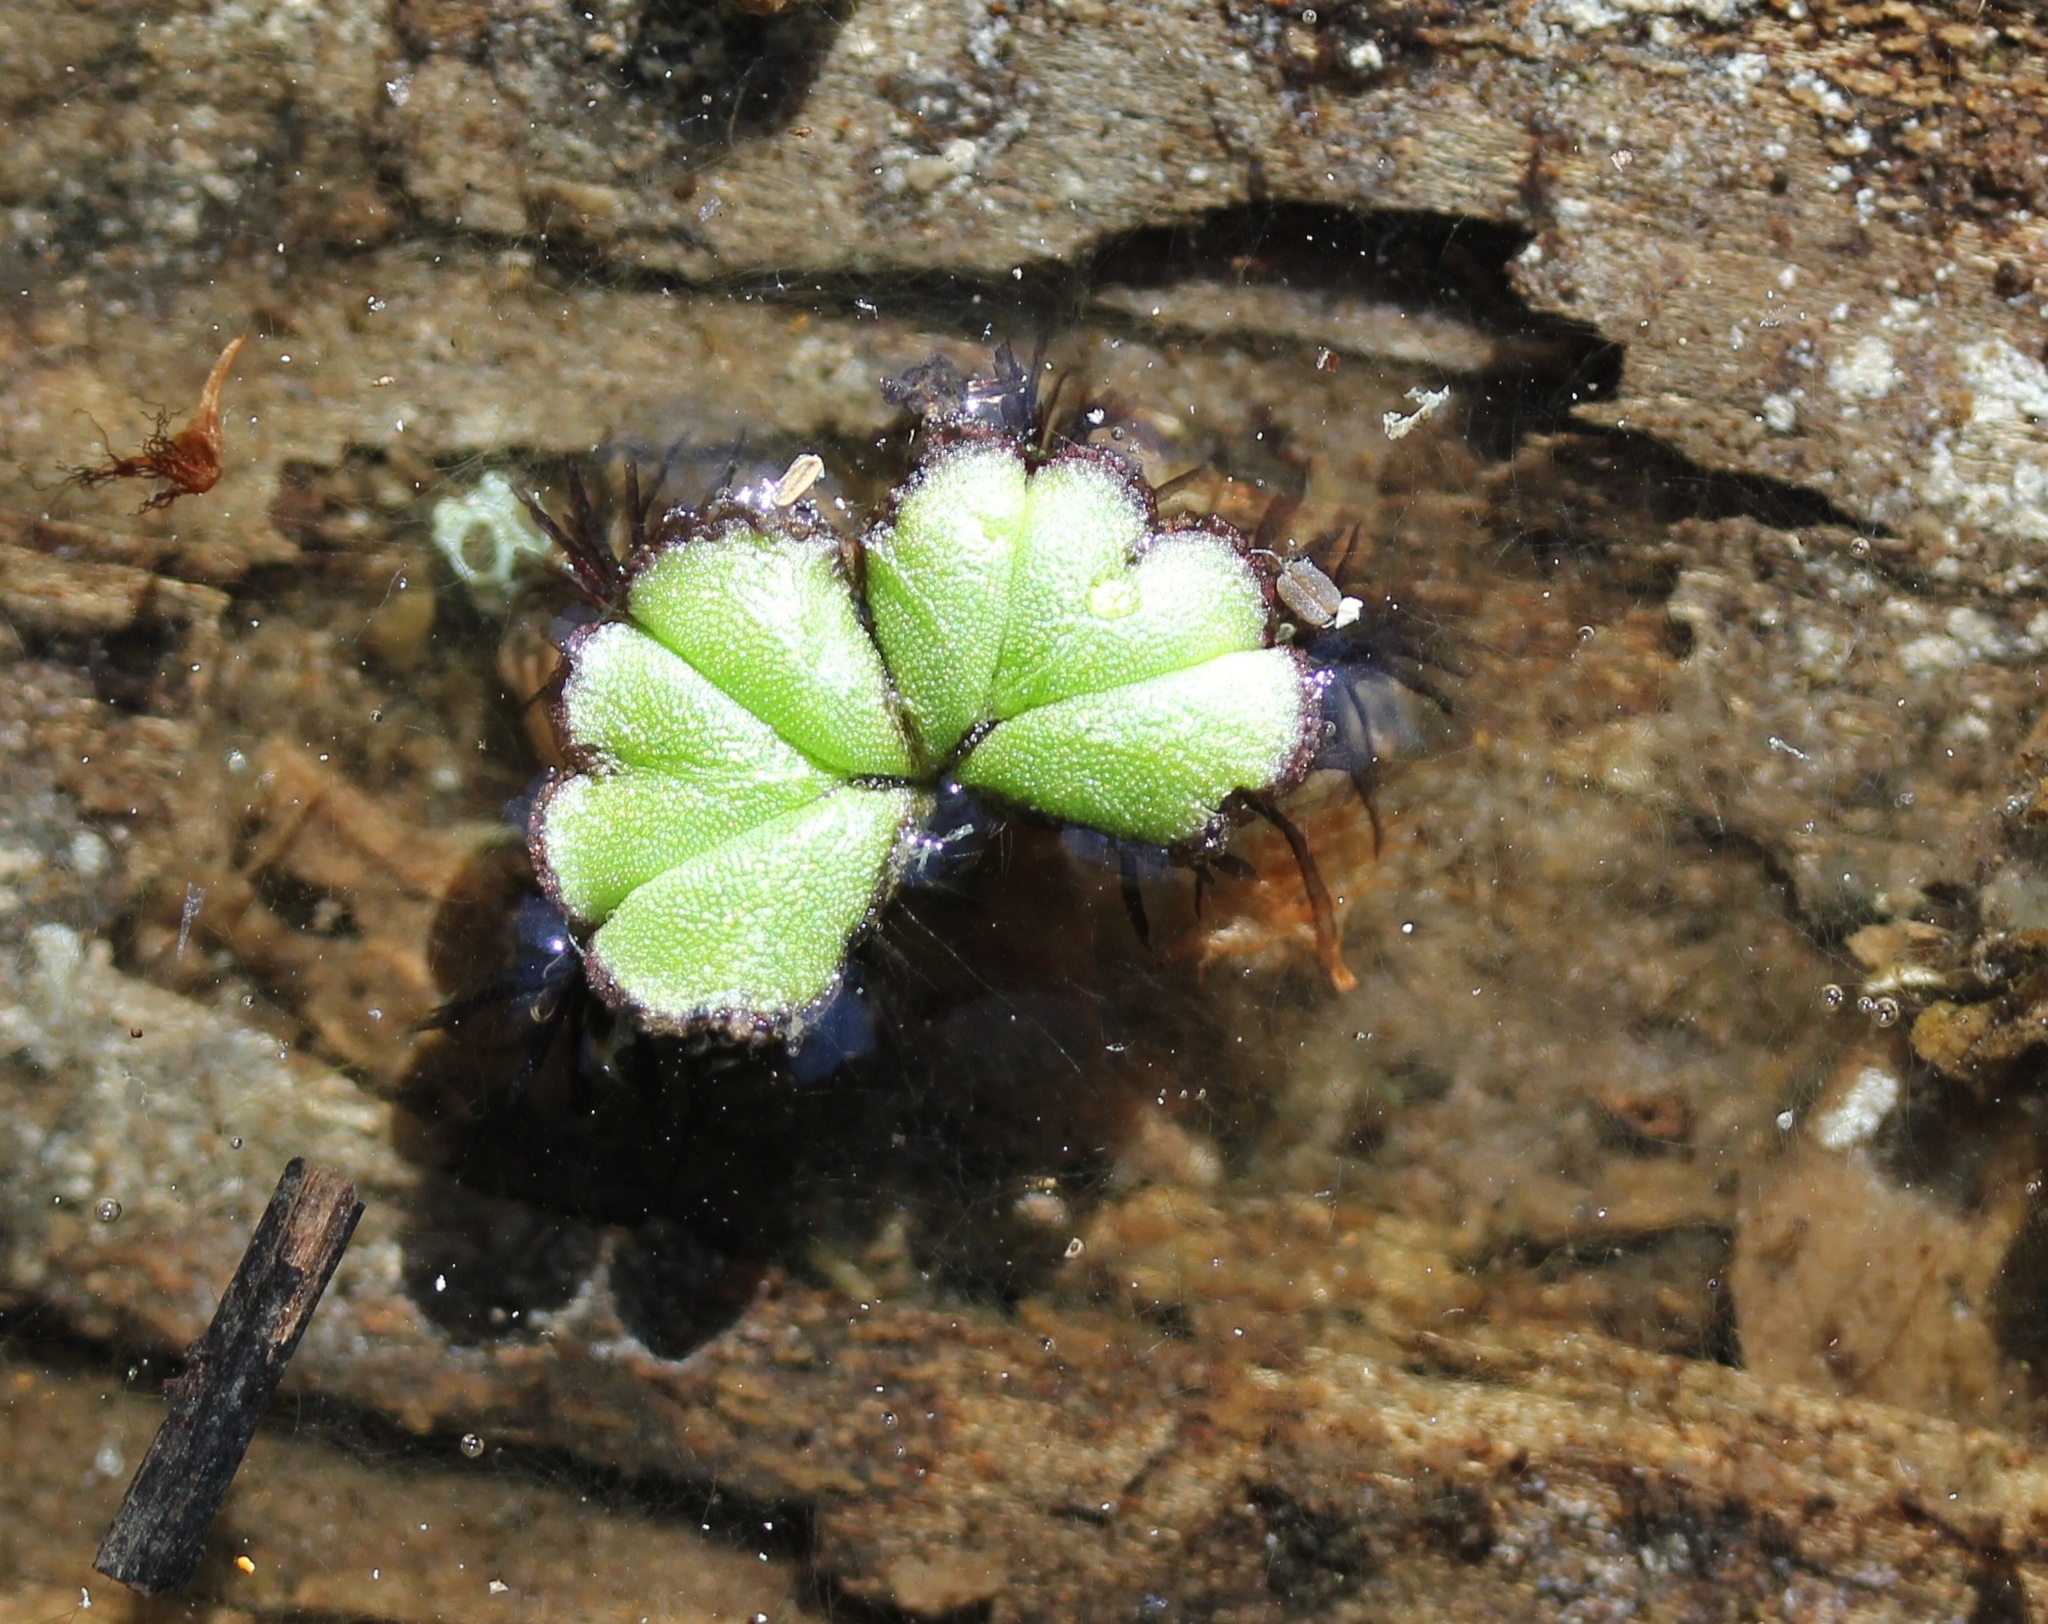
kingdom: Plantae
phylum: Marchantiophyta
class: Marchantiopsida
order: Marchantiales
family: Ricciaceae
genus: Ricciocarpos
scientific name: Ricciocarpos natans
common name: Purple-fringed liverwort
